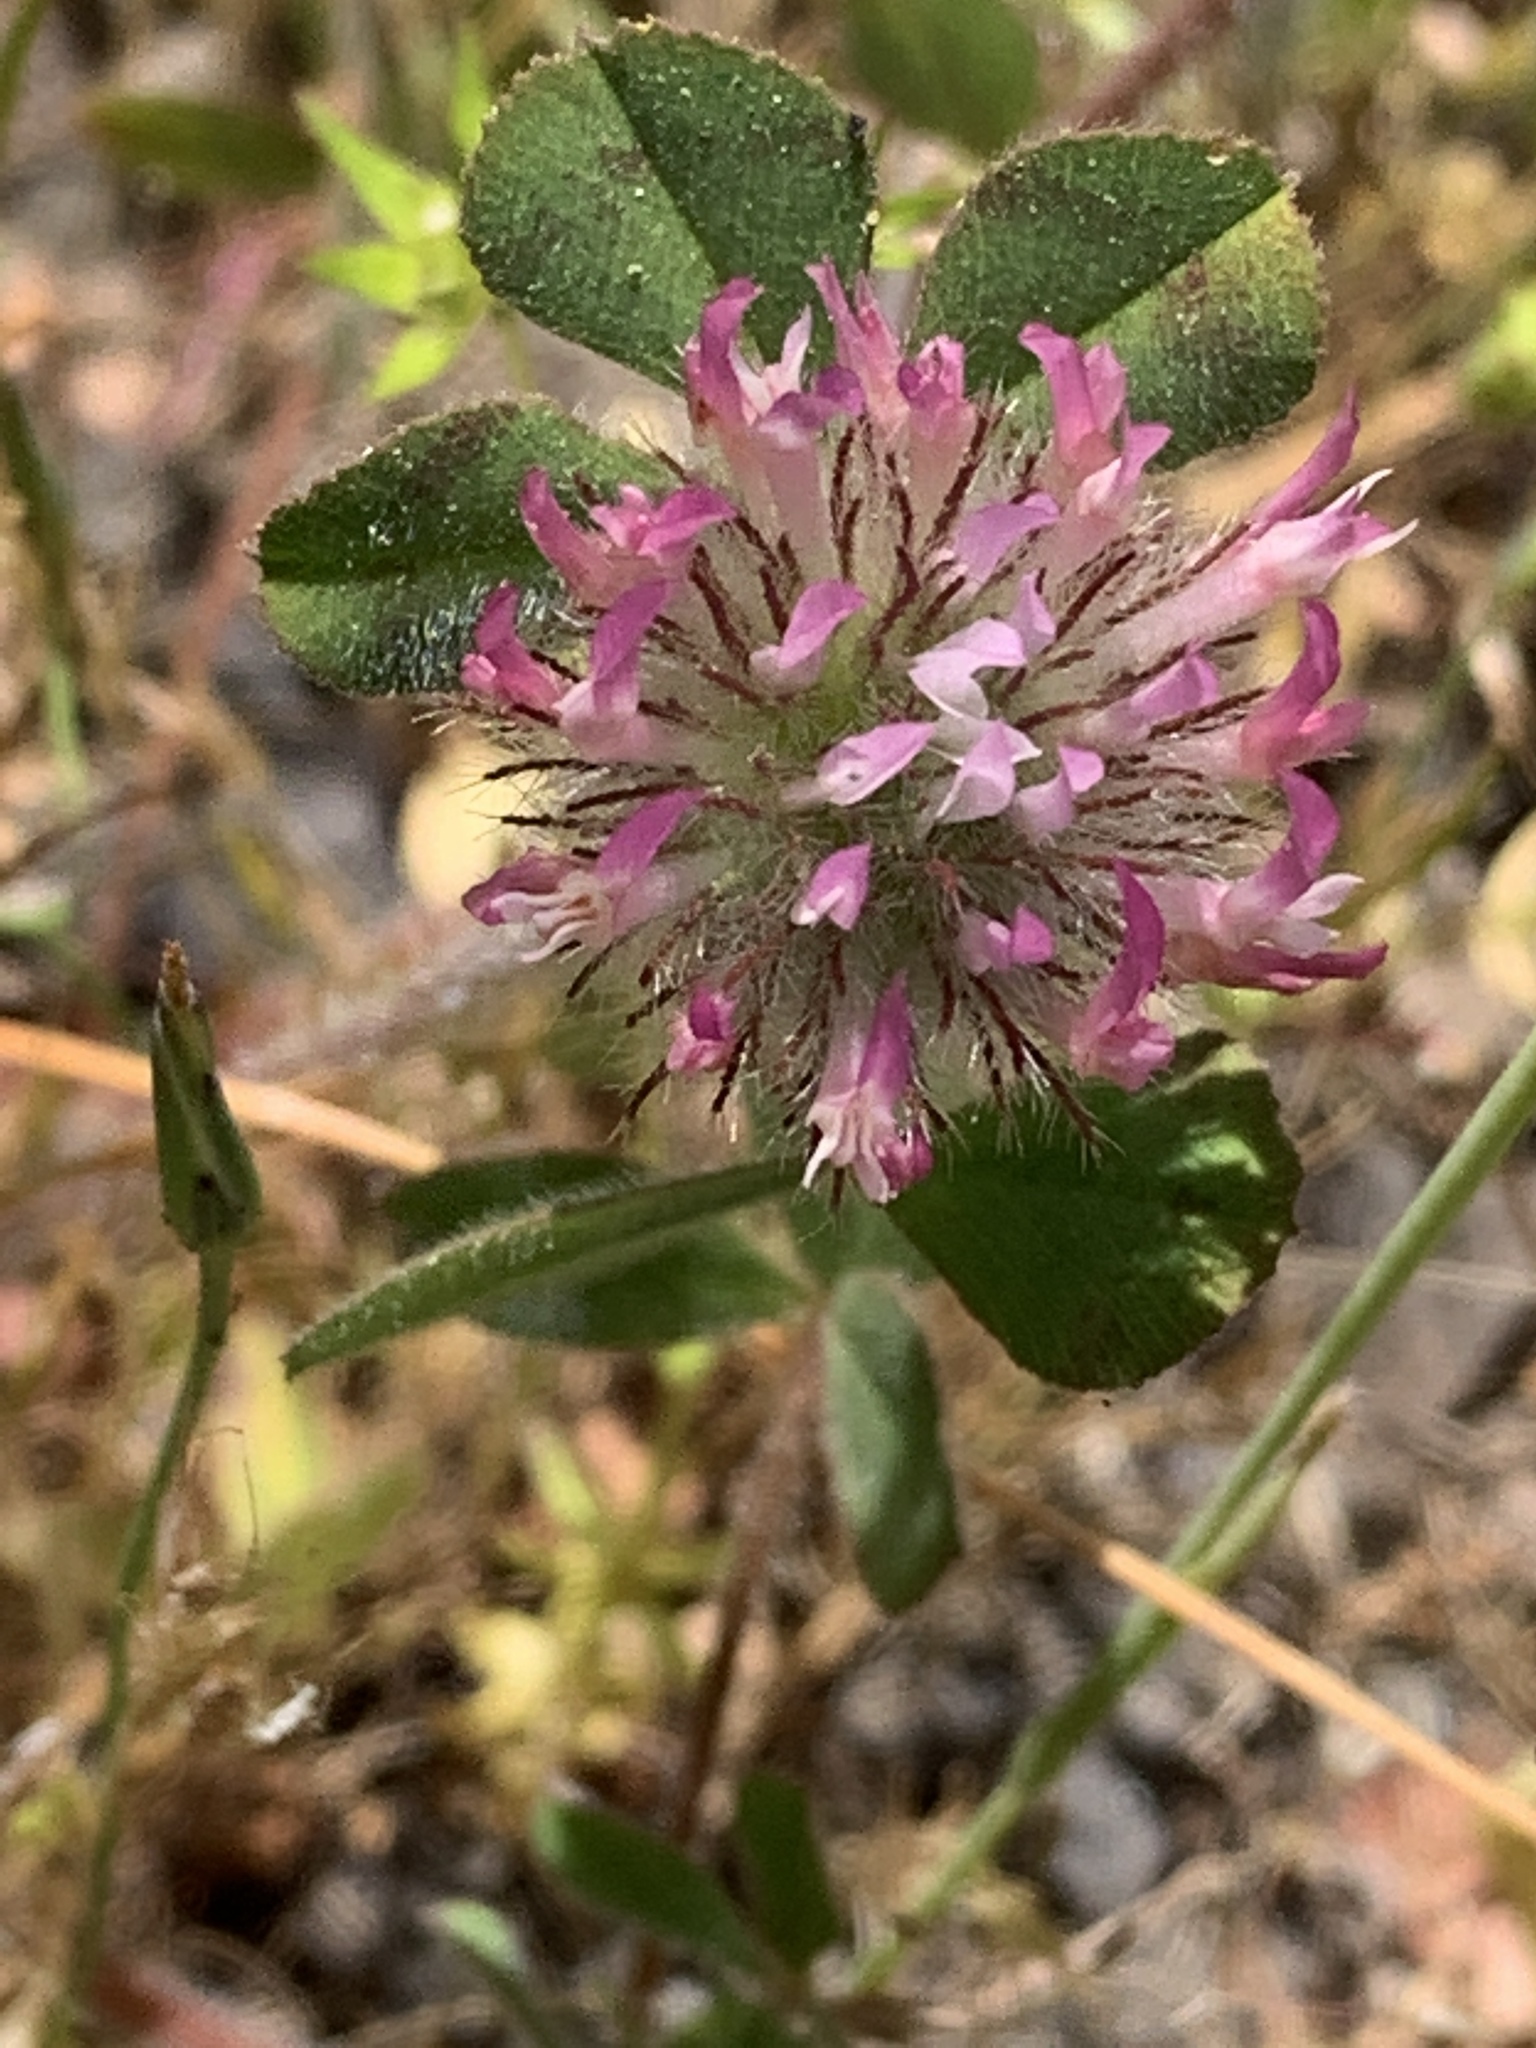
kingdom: Plantae
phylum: Tracheophyta
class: Magnoliopsida
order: Fabales
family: Fabaceae
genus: Trifolium
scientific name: Trifolium hirtum
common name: Rose clover
